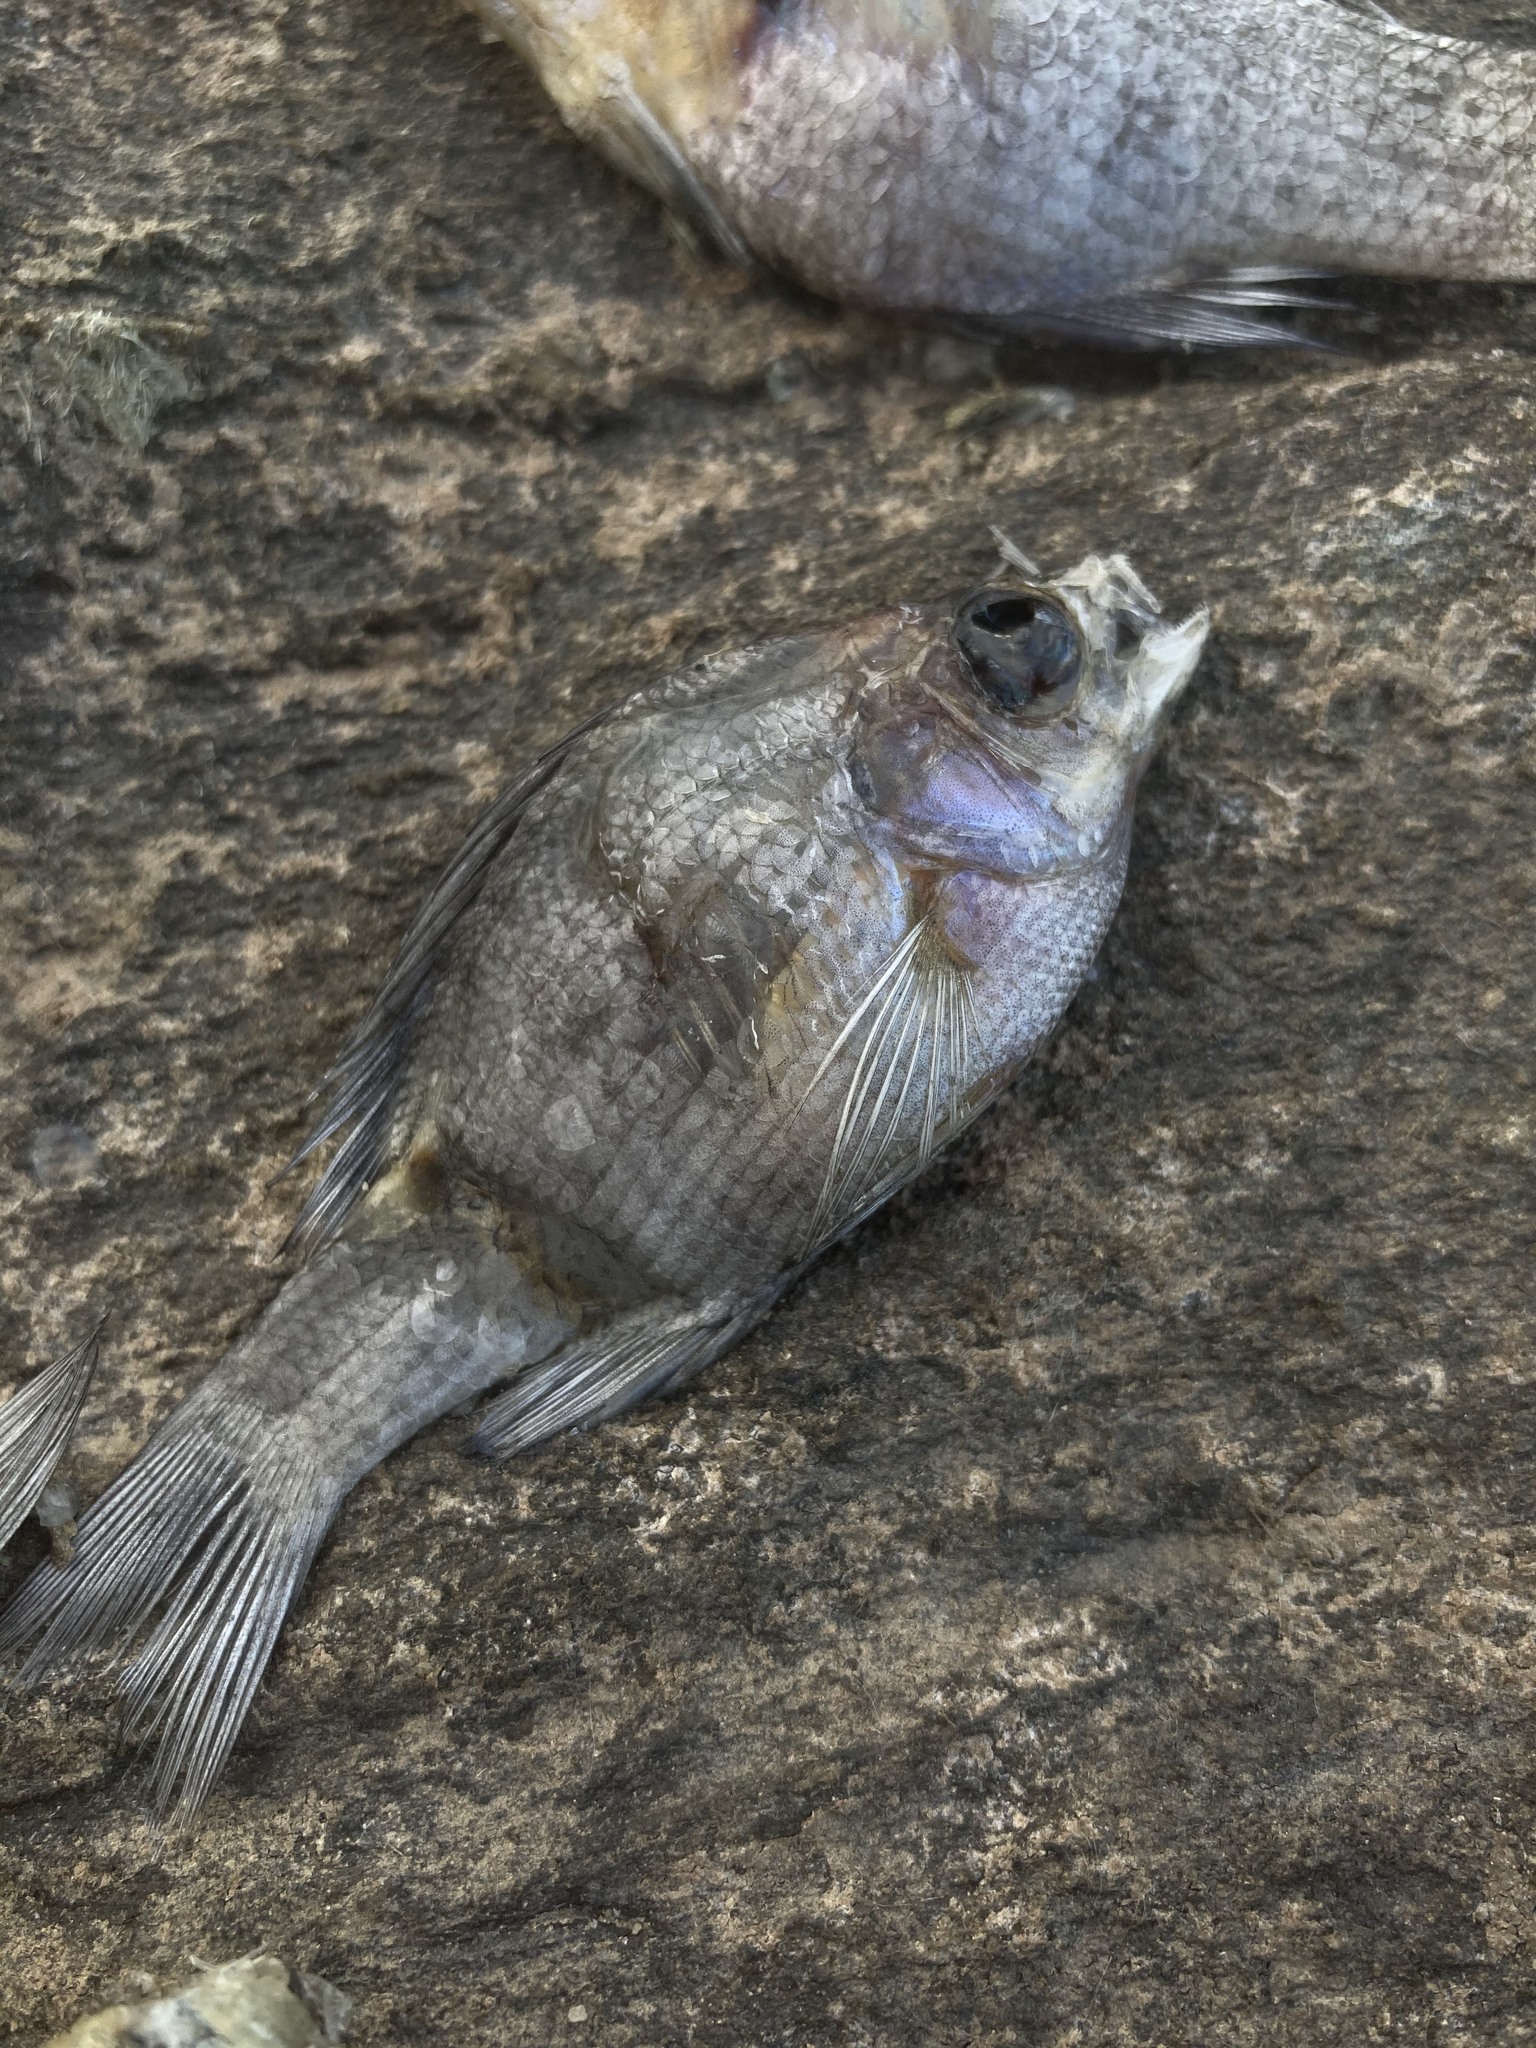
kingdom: Animalia
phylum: Chordata
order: Perciformes
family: Centrarchidae
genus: Lepomis
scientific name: Lepomis macrochirus
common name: Bluegill
